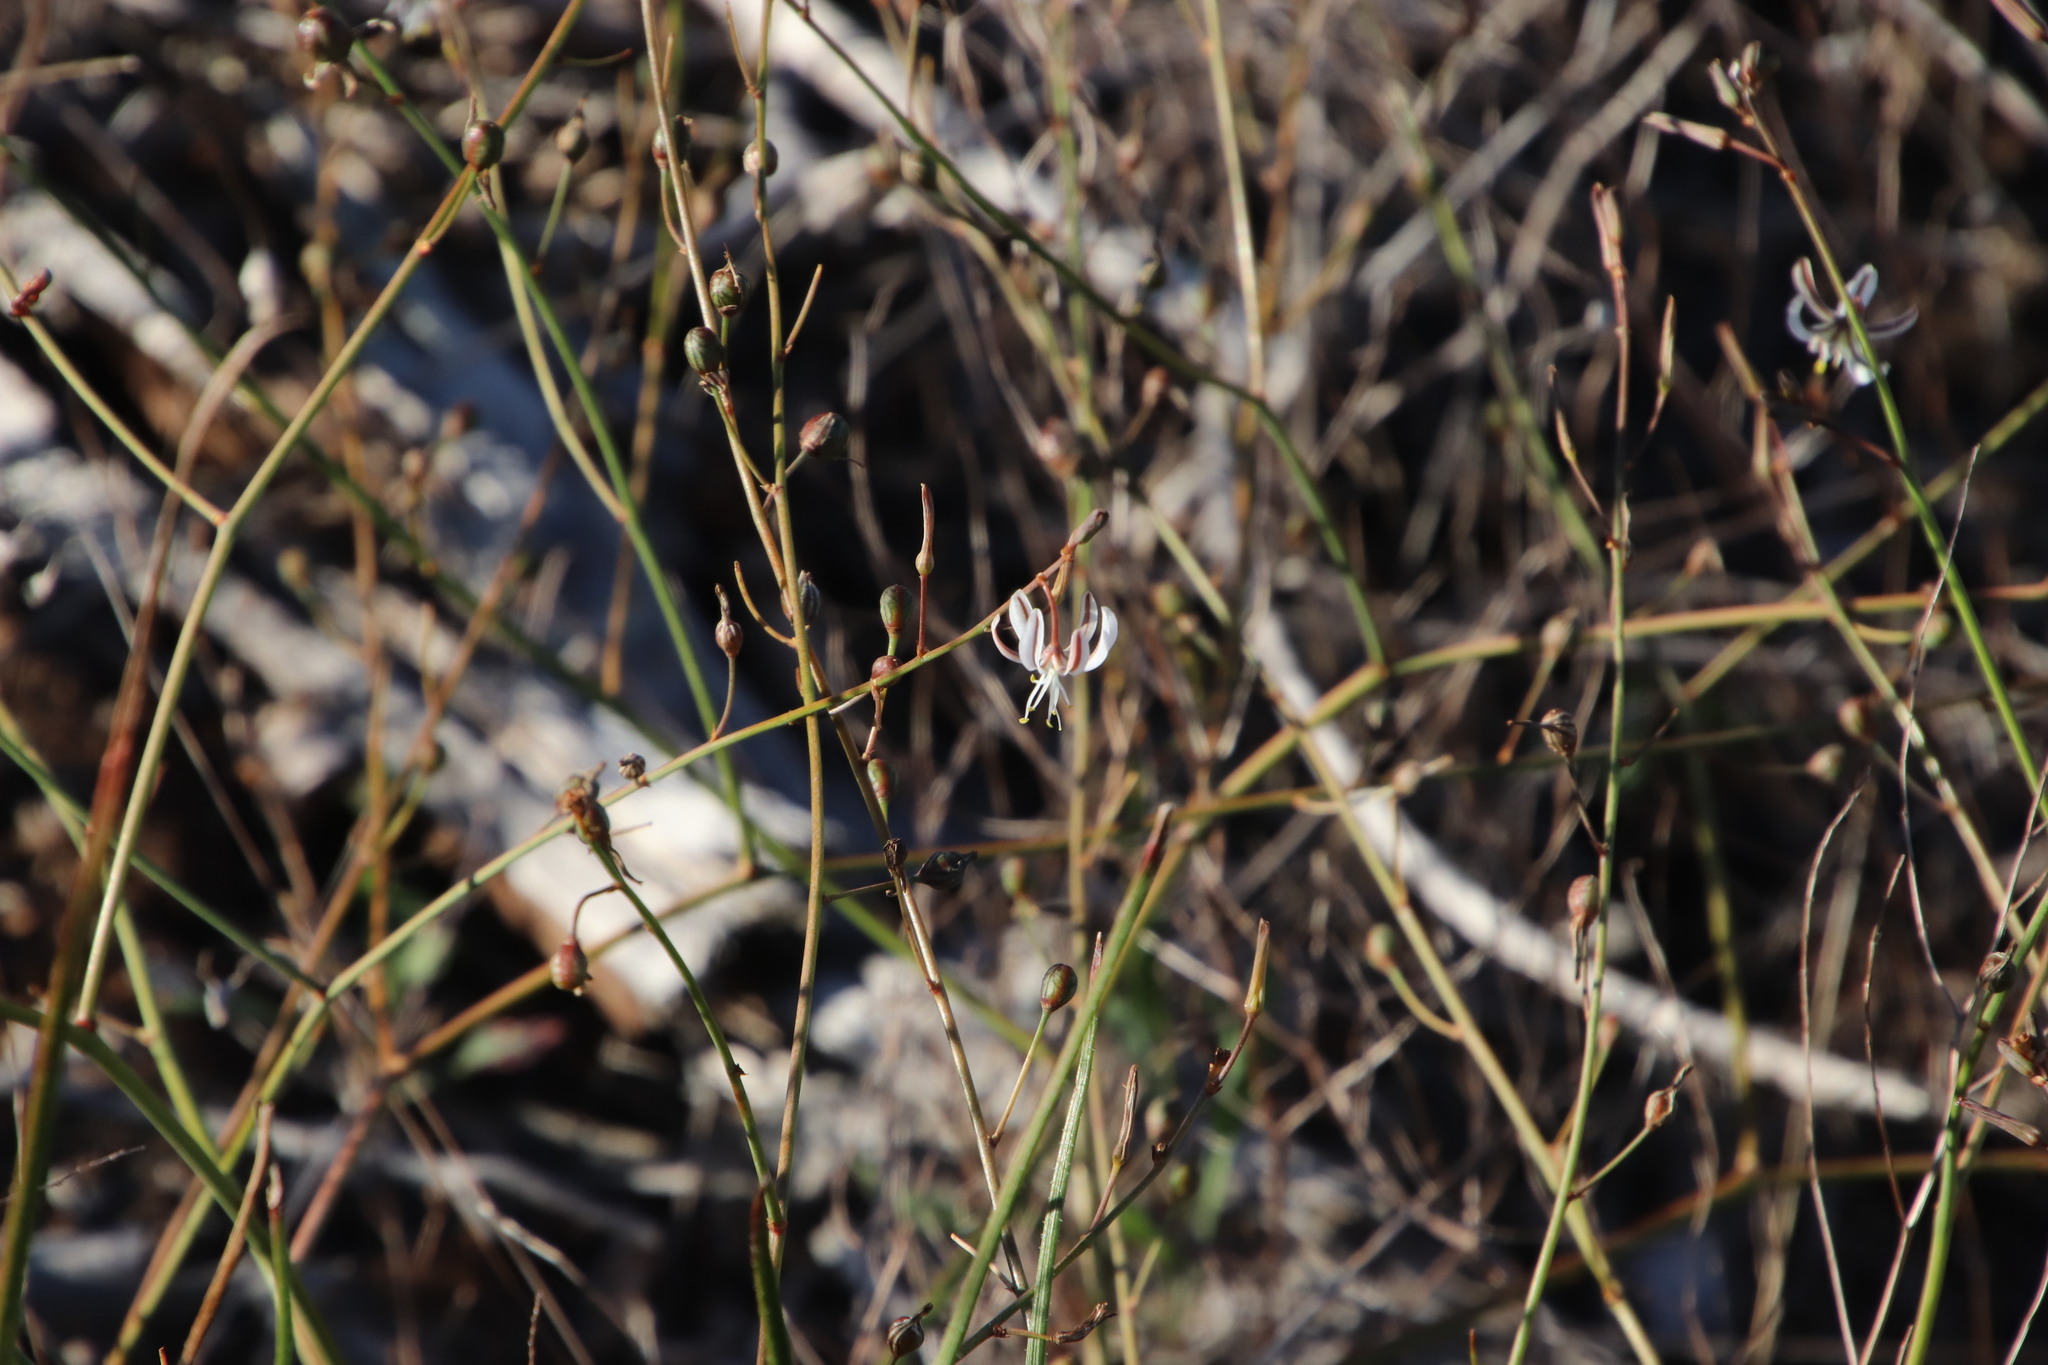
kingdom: Plantae
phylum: Tracheophyta
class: Liliopsida
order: Asparagales
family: Asphodelaceae
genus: Trachyandra
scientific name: Trachyandra revoluta
